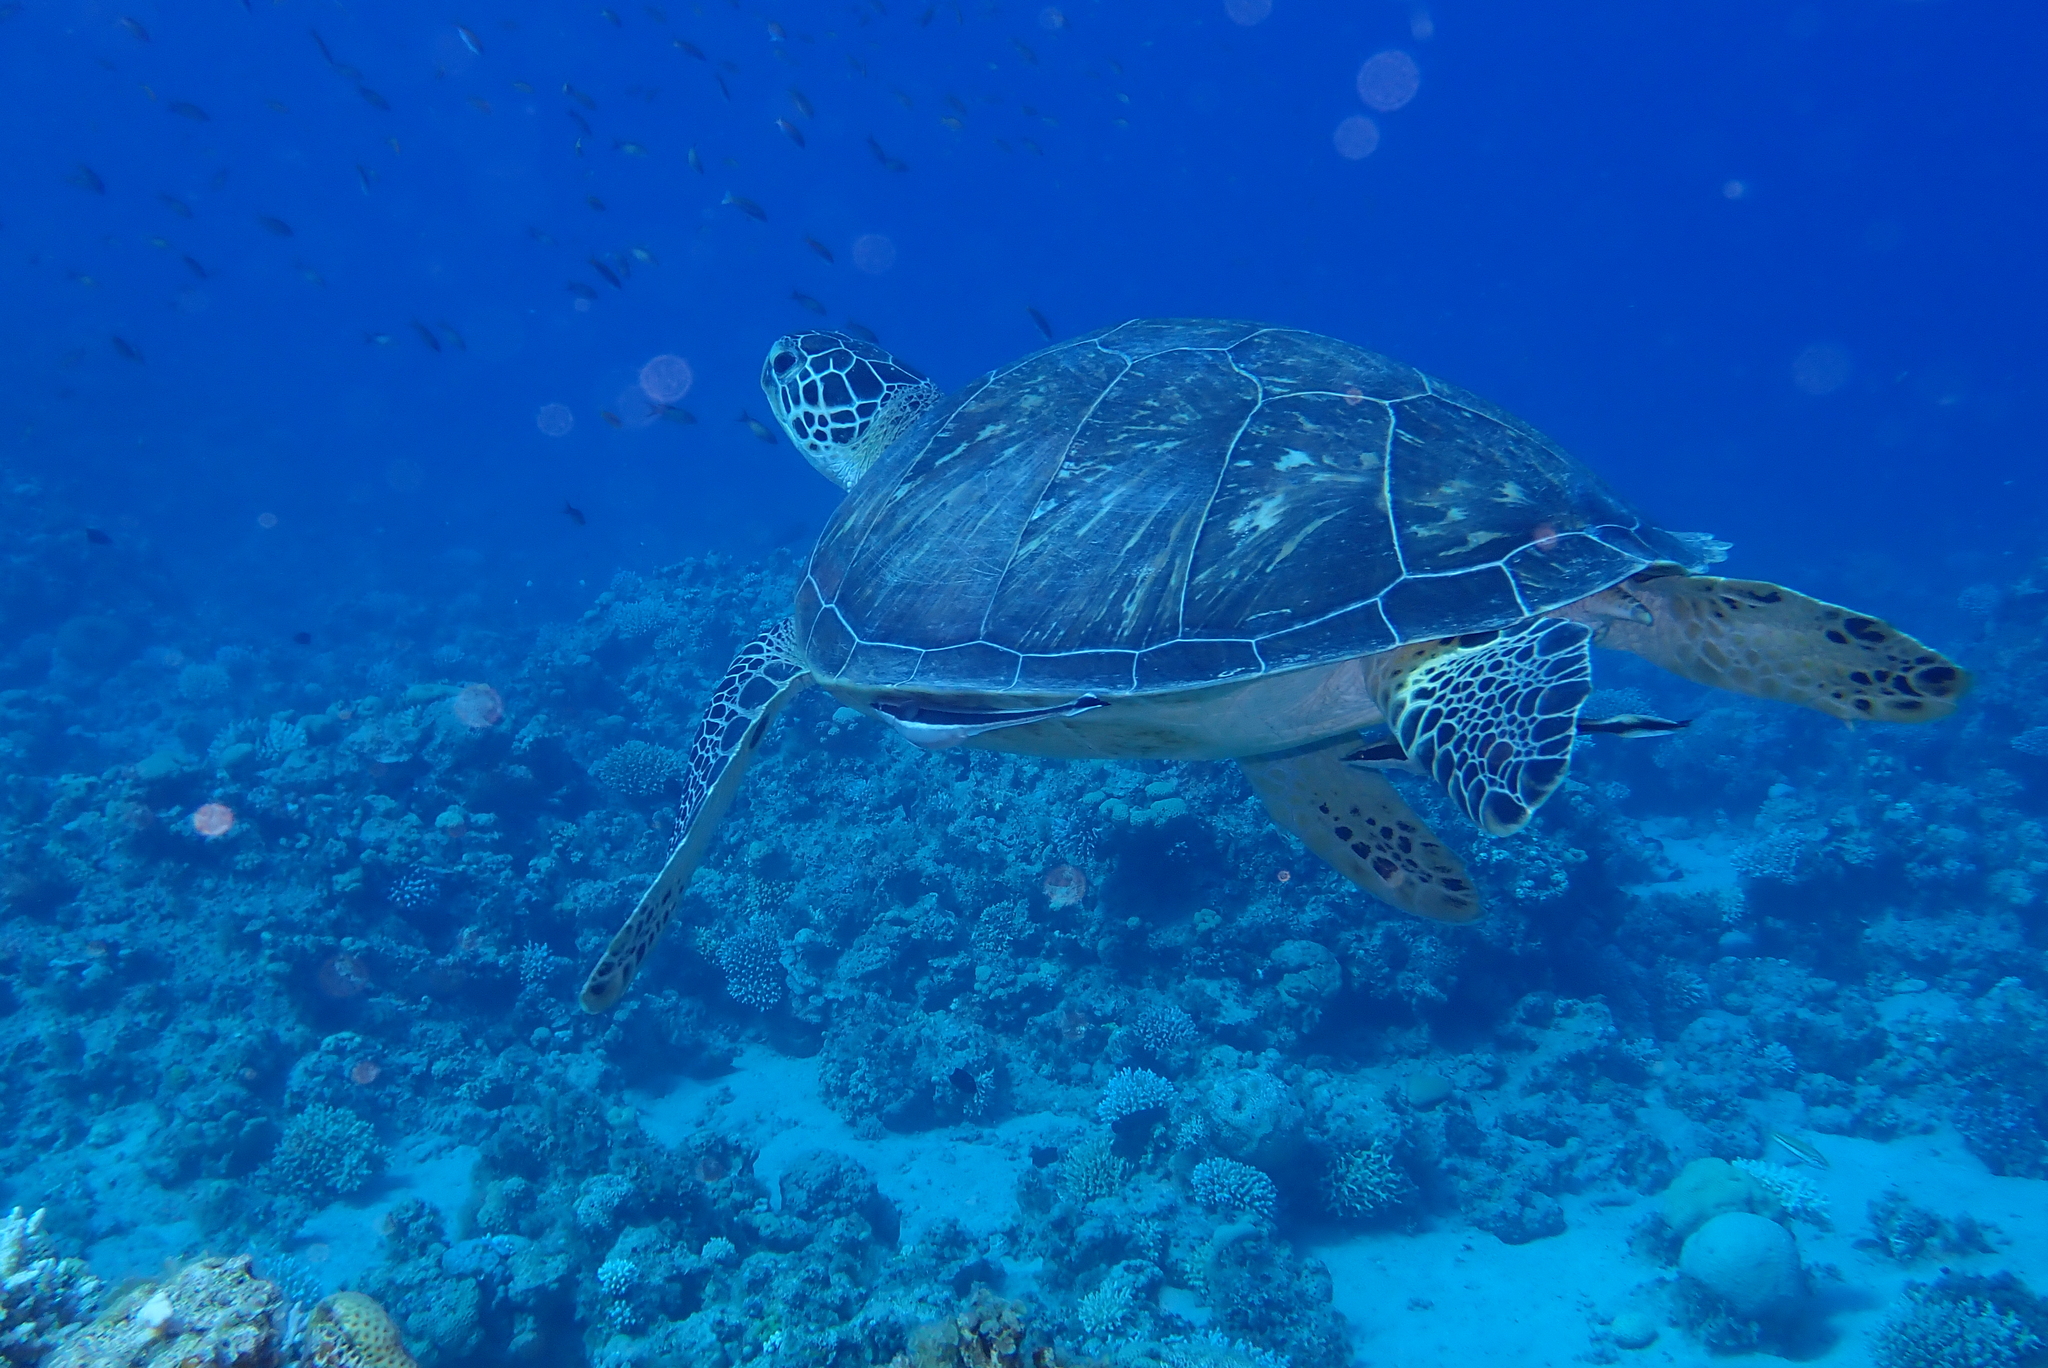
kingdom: Animalia
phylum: Chordata
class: Testudines
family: Cheloniidae
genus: Chelonia
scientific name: Chelonia mydas
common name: Green turtle
